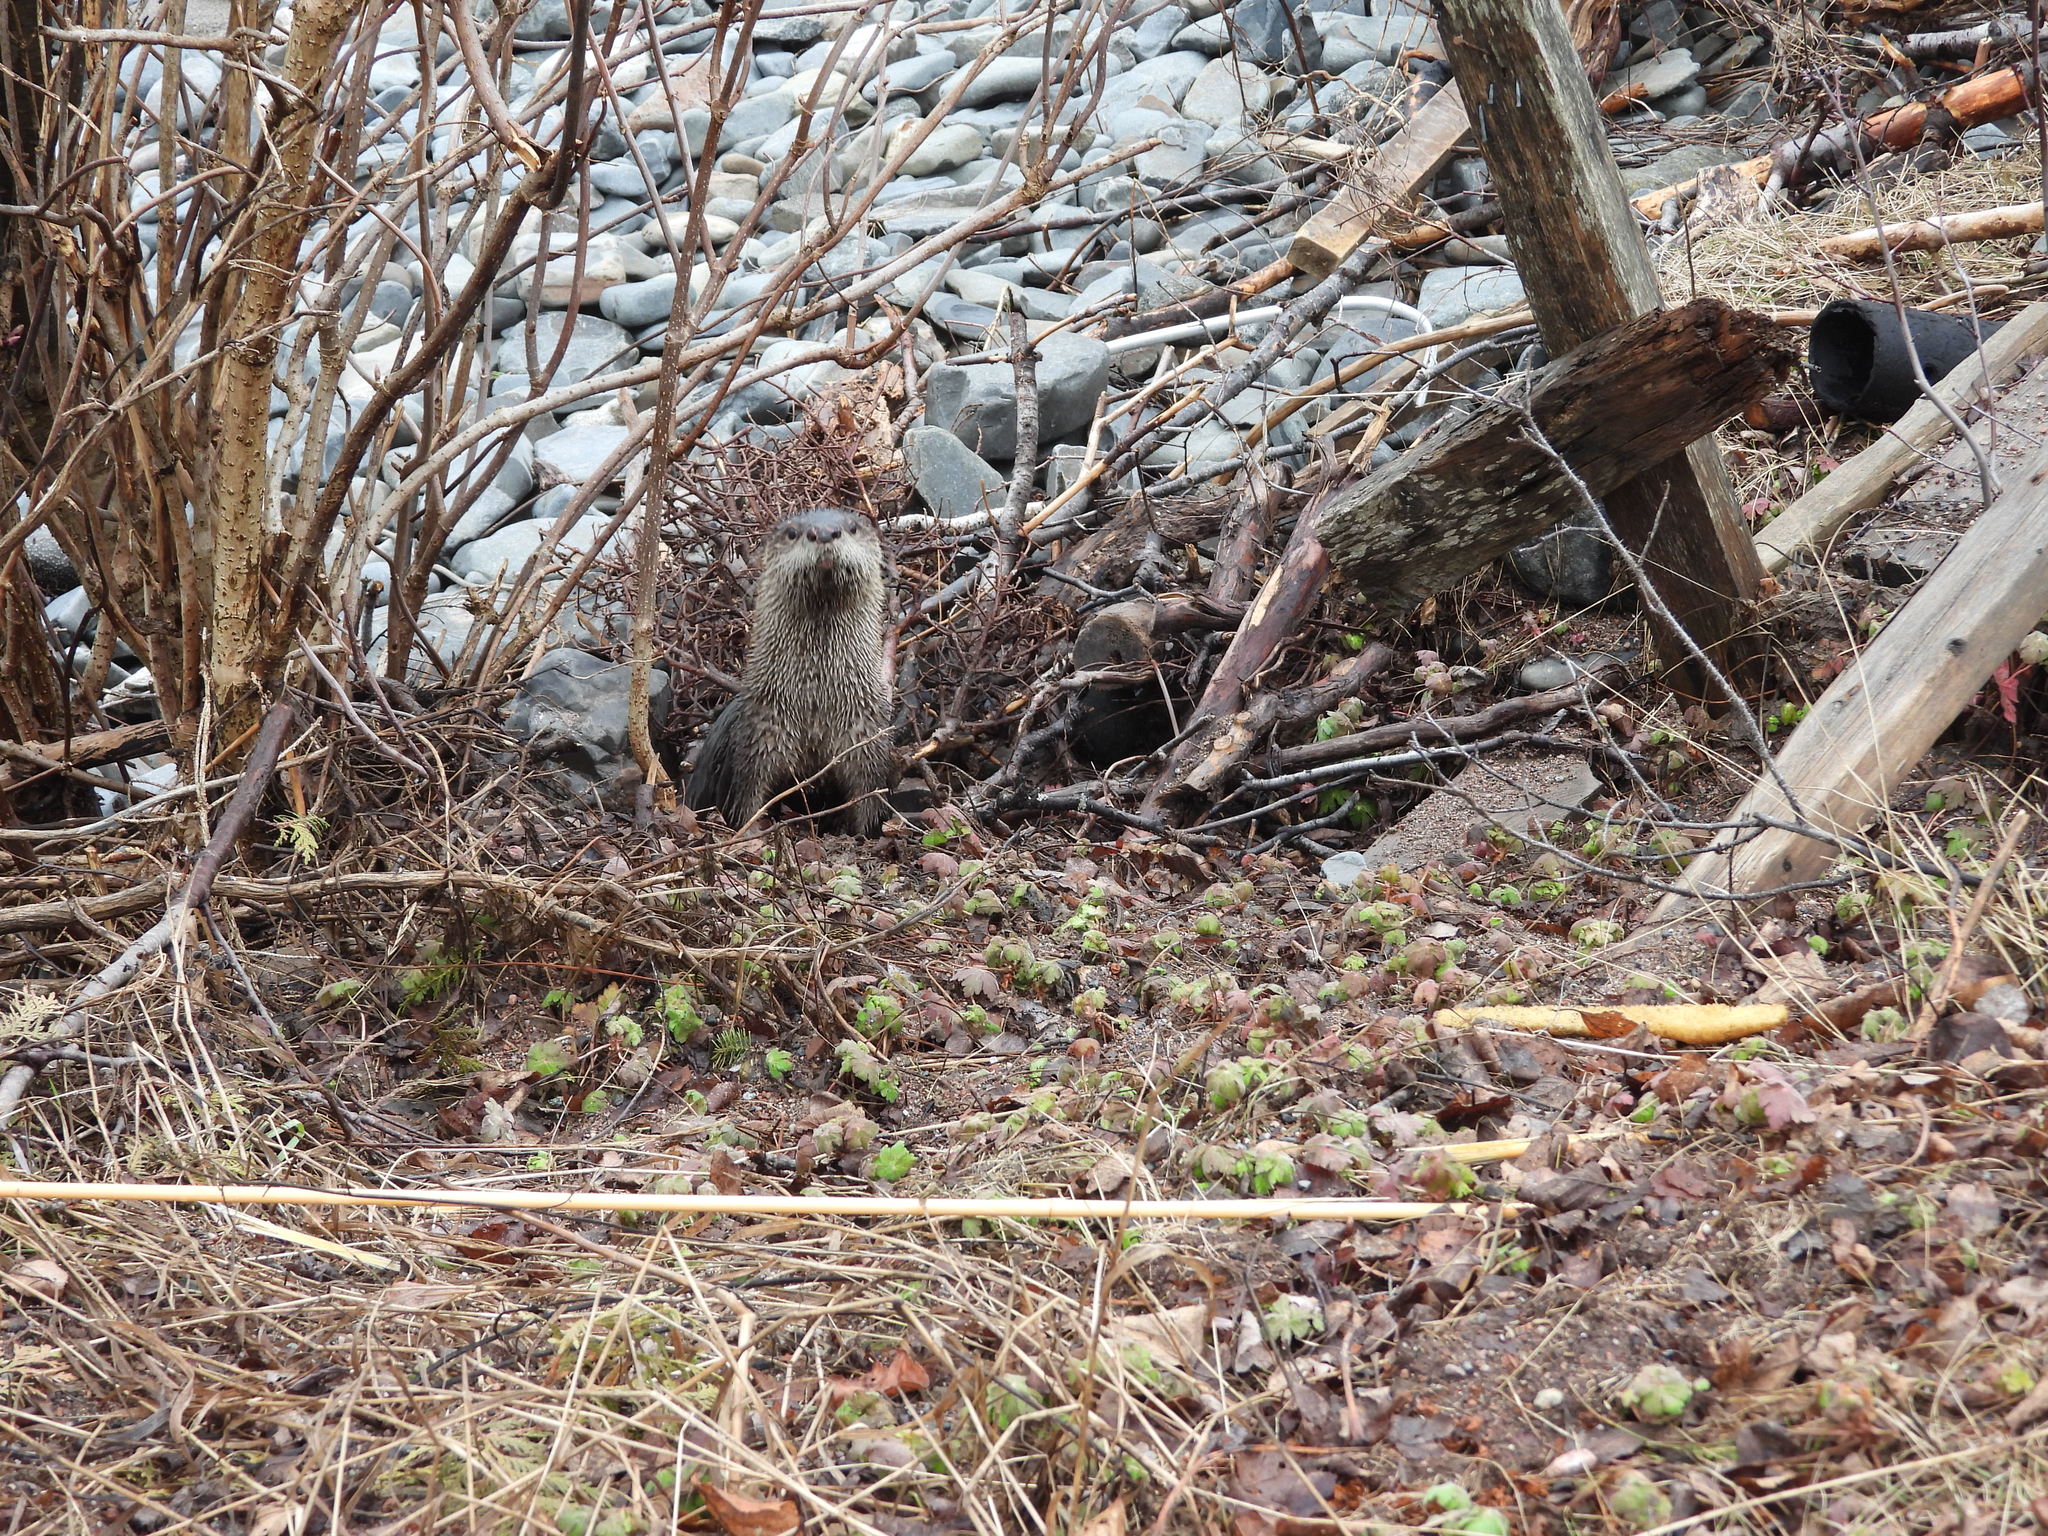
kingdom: Animalia
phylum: Chordata
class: Mammalia
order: Carnivora
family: Mustelidae
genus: Lontra
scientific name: Lontra canadensis
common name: North american river otter
